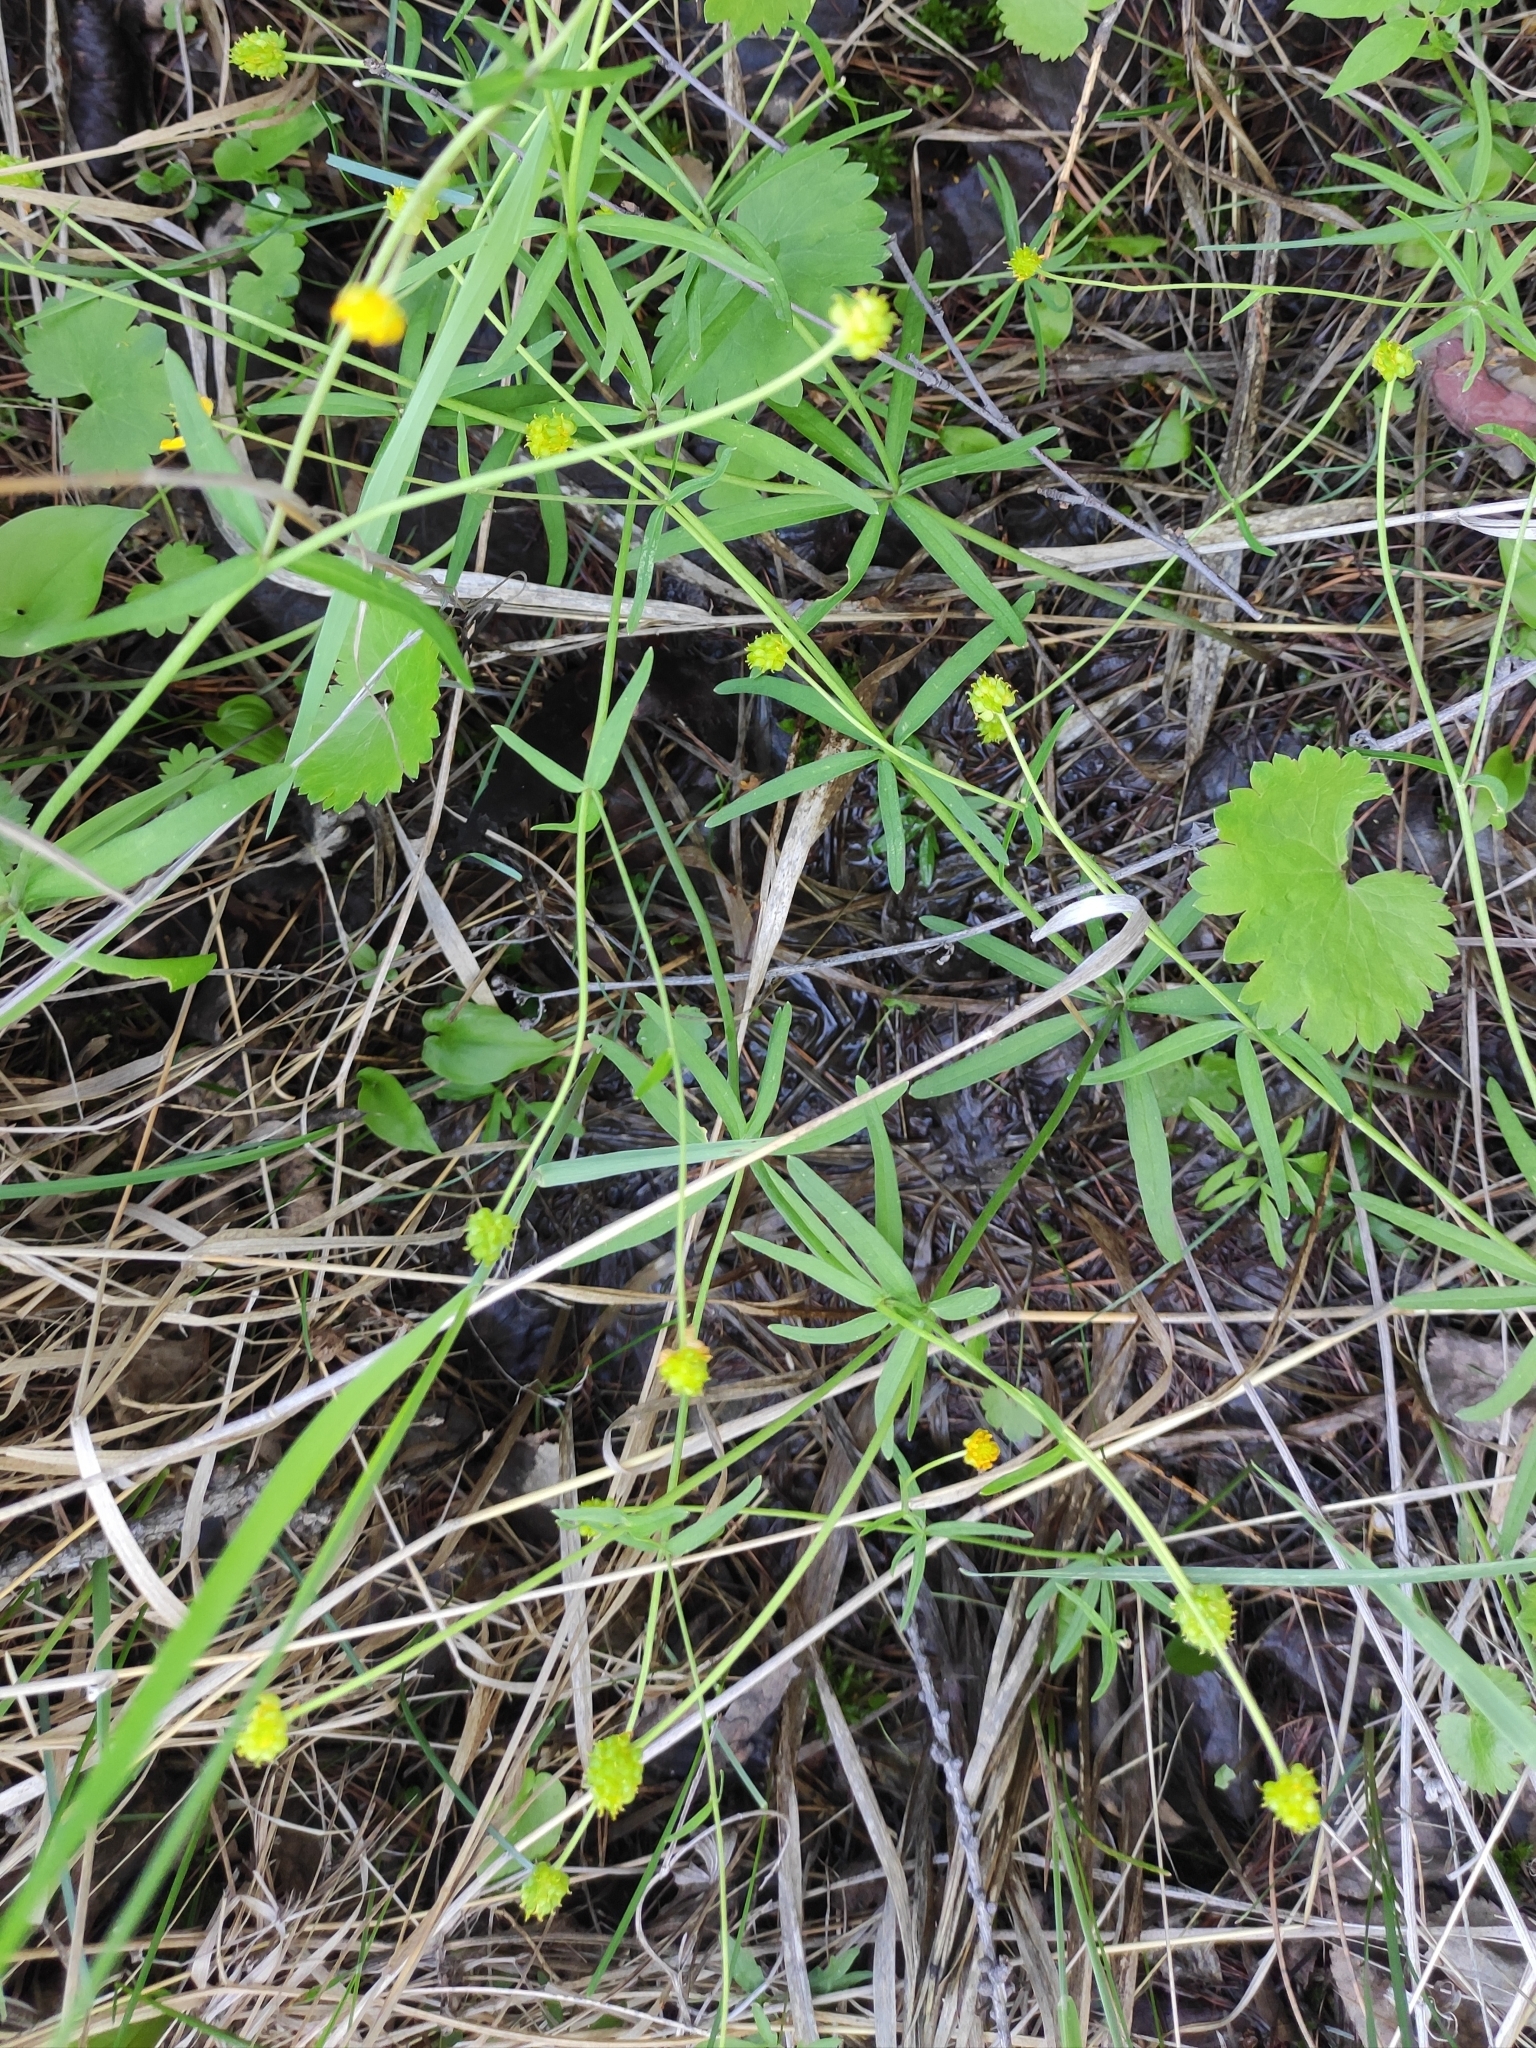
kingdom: Plantae
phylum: Tracheophyta
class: Magnoliopsida
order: Ranunculales
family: Ranunculaceae
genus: Ranunculus
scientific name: Ranunculus monophyllus
